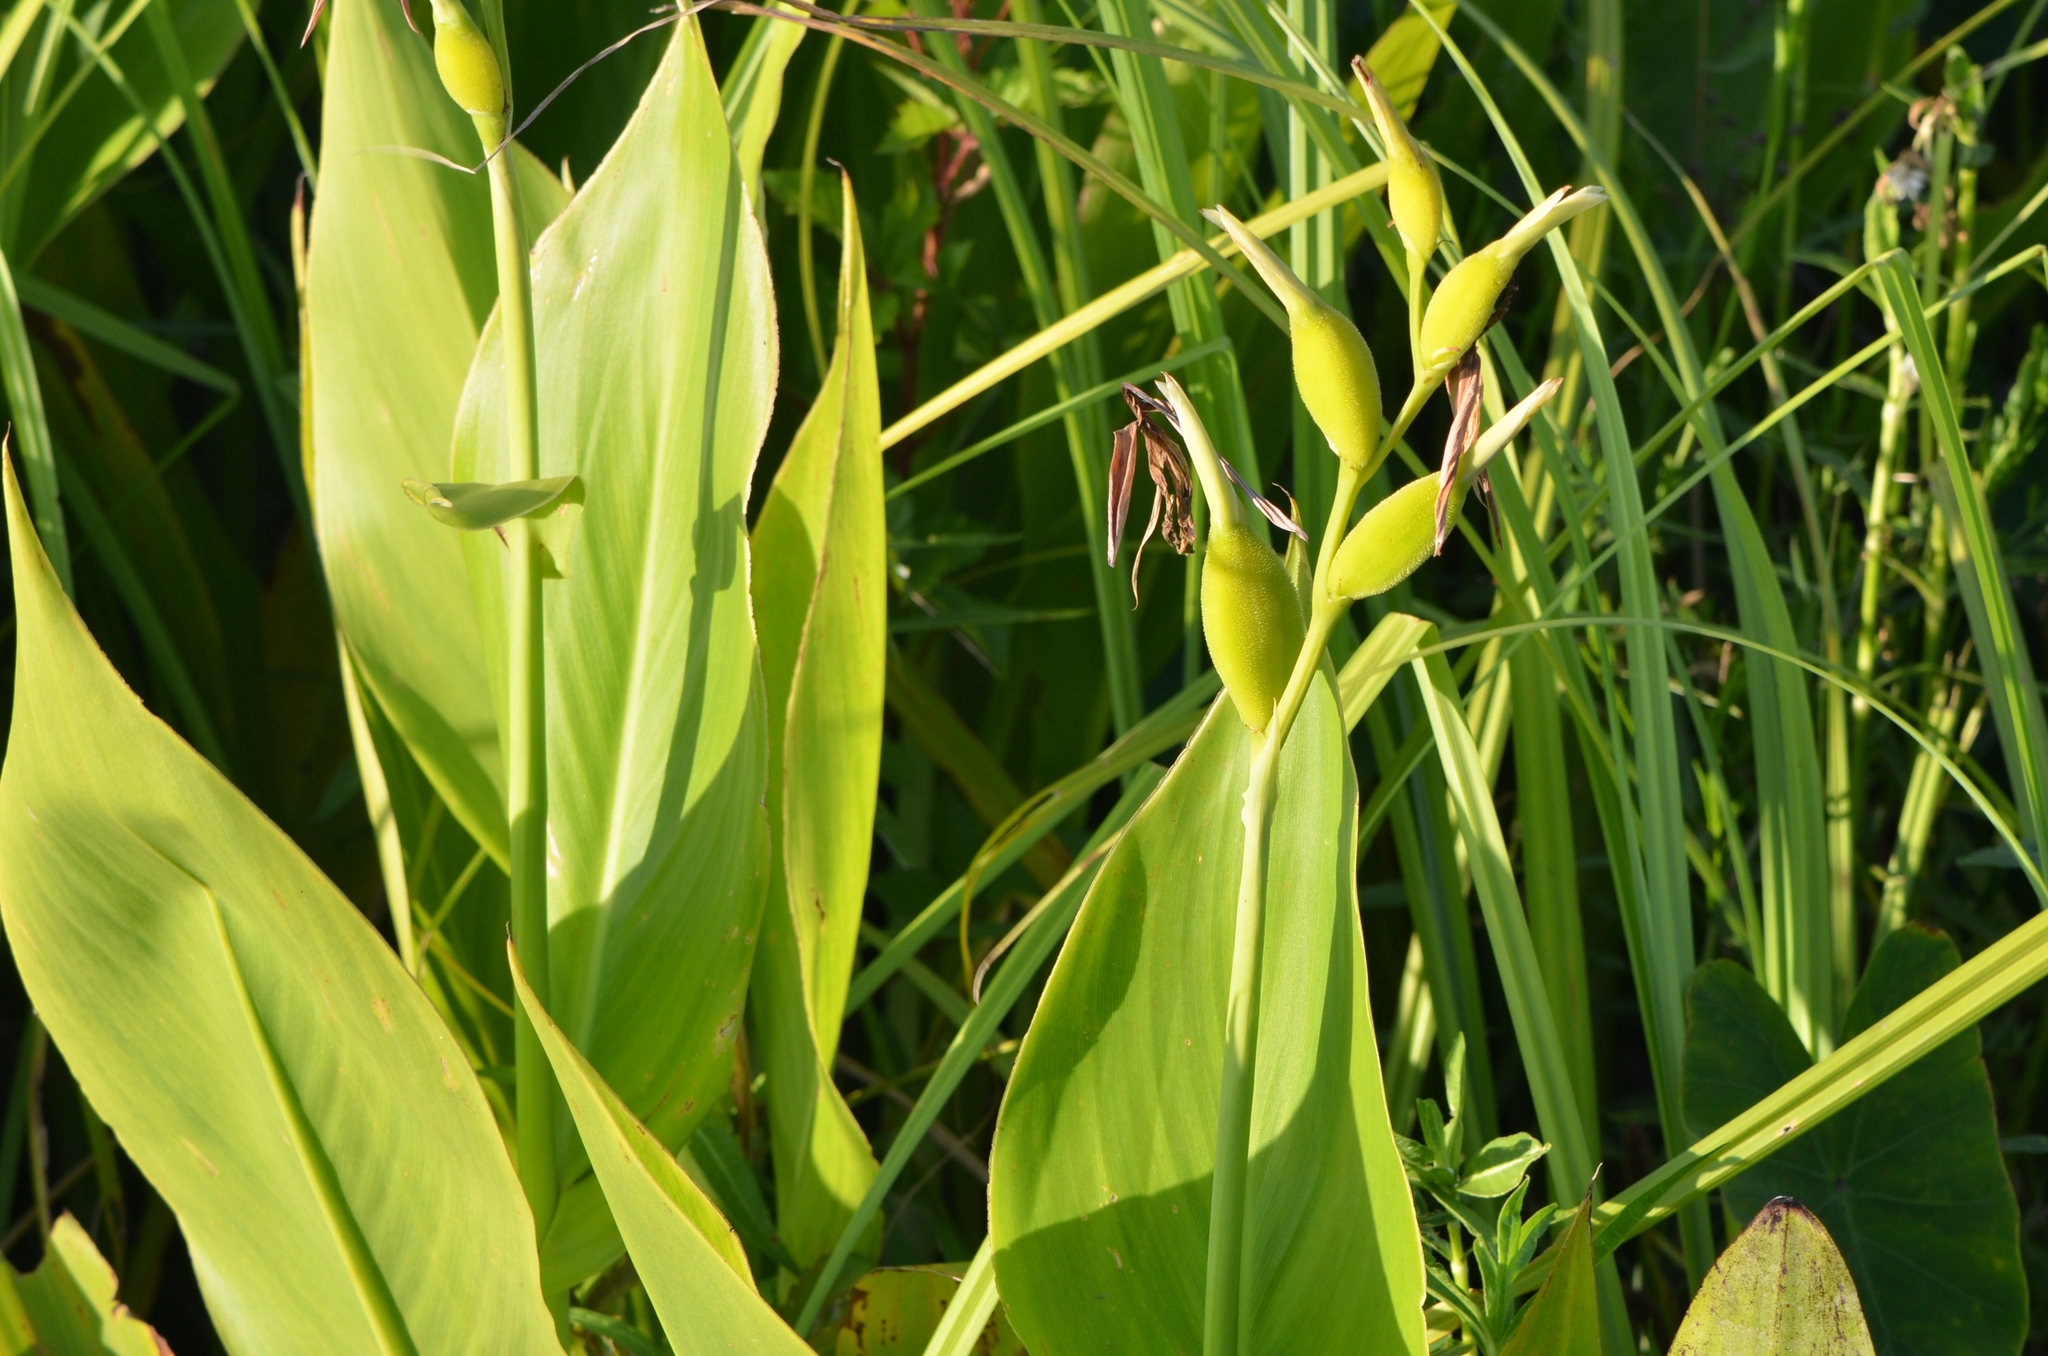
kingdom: Plantae
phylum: Tracheophyta
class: Liliopsida
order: Zingiberales
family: Cannaceae
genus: Canna
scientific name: Canna flaccida
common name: Bandana-of-the-everglades
